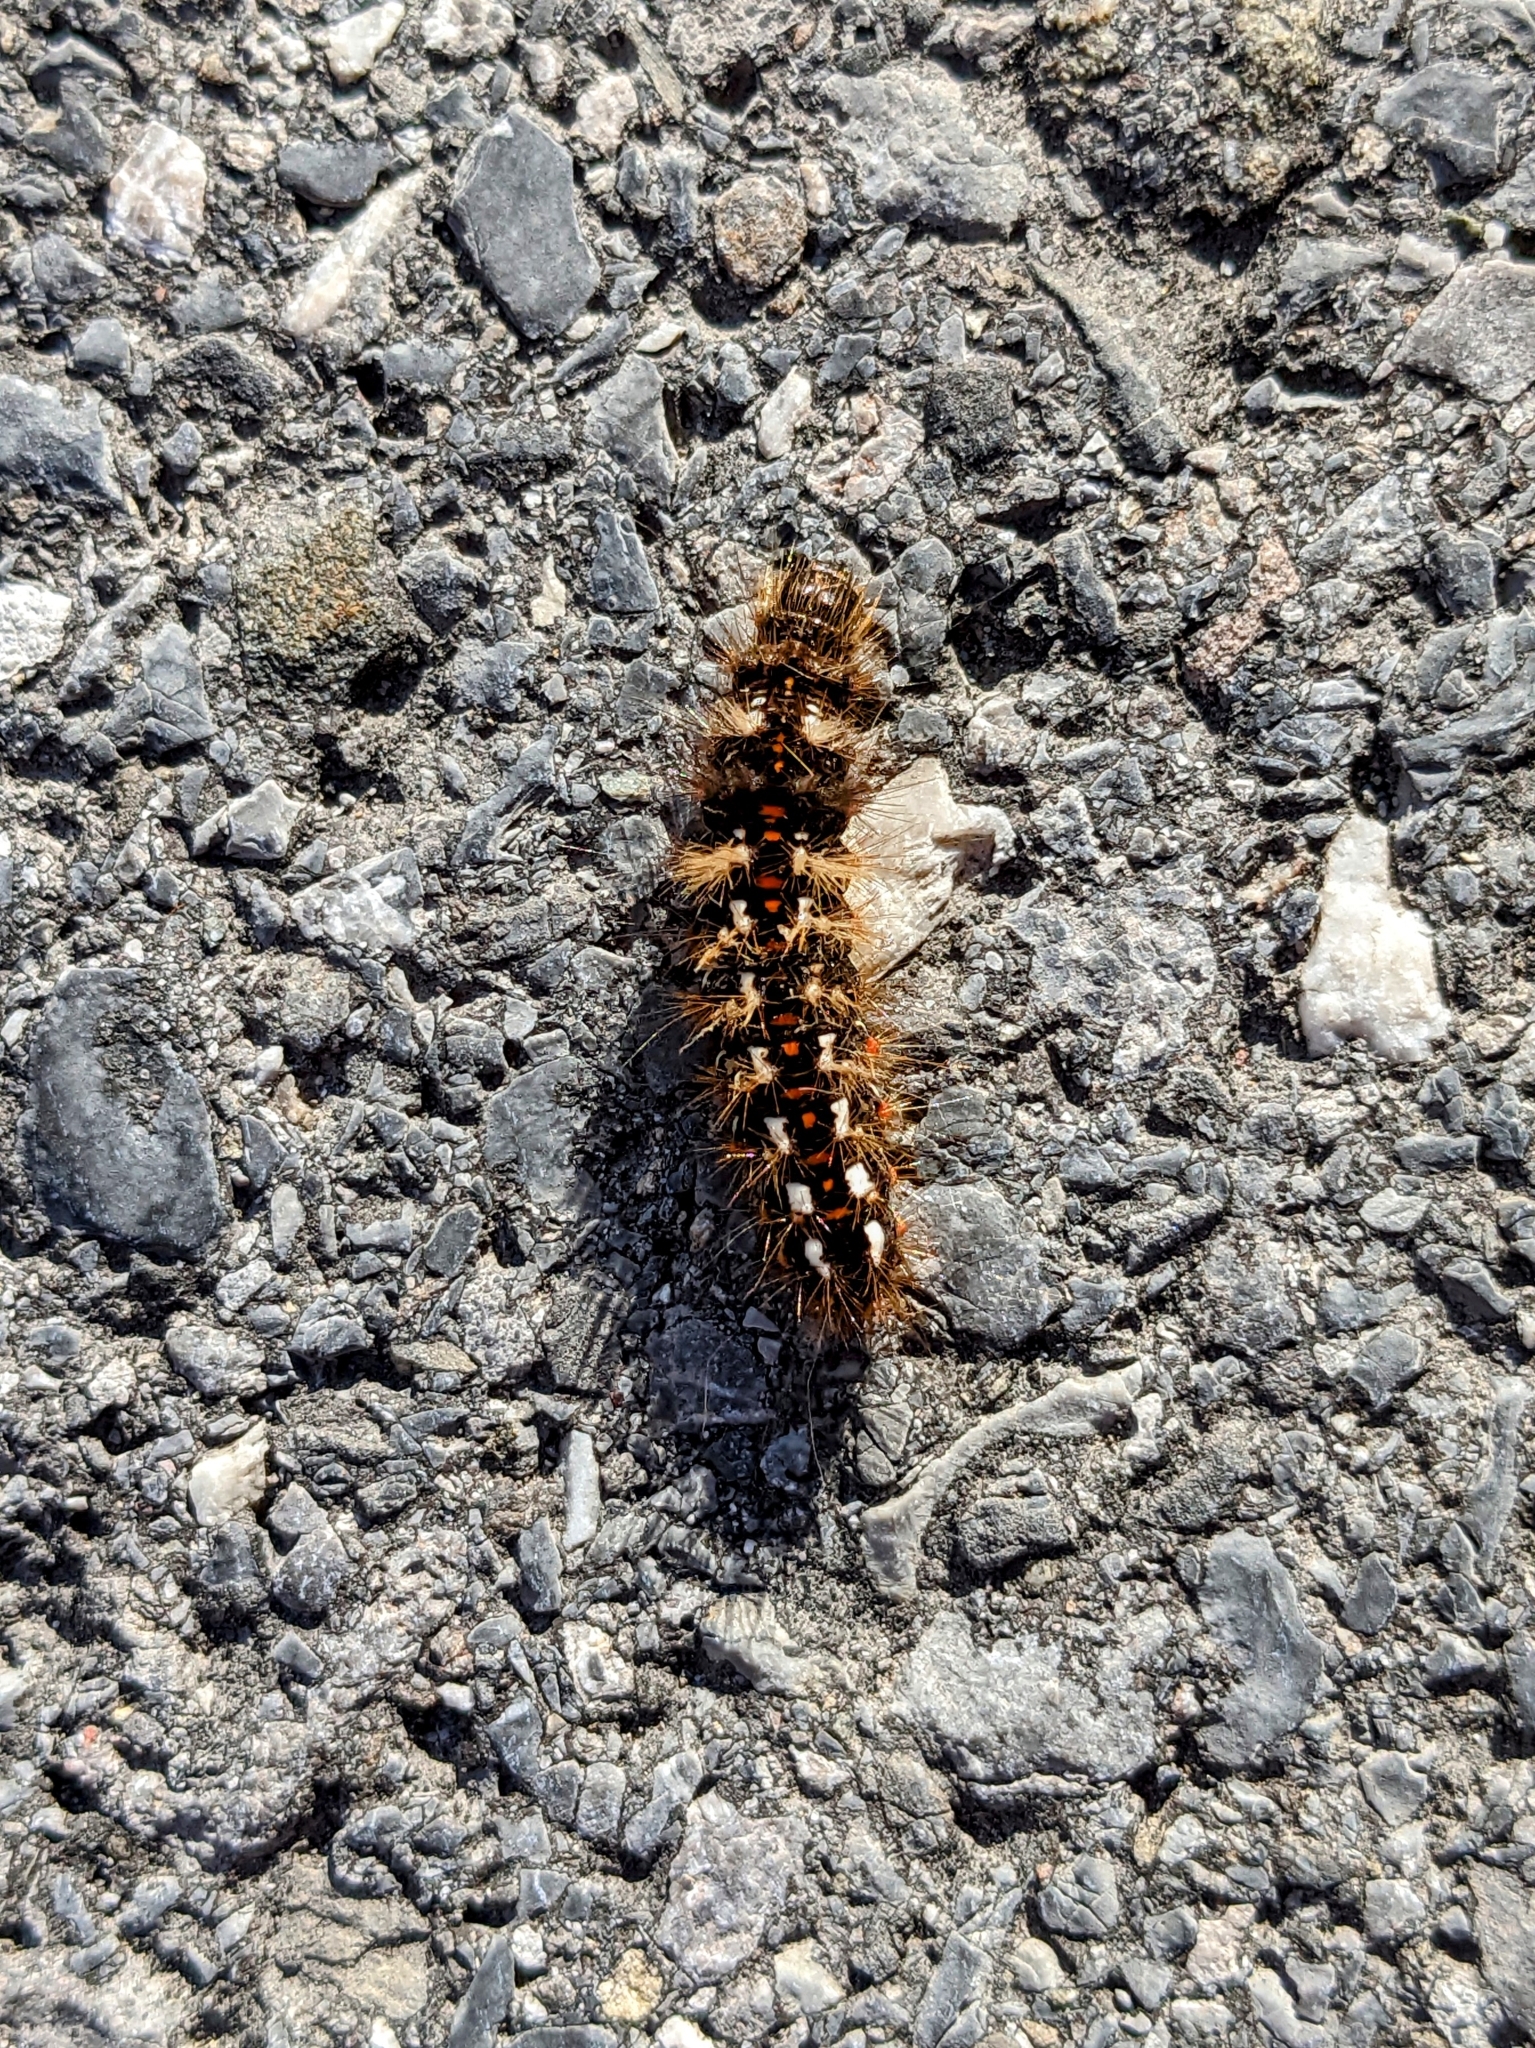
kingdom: Animalia
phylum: Arthropoda
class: Insecta
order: Lepidoptera
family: Noctuidae
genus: Acronicta
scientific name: Acronicta rumicis
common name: Knot grass
